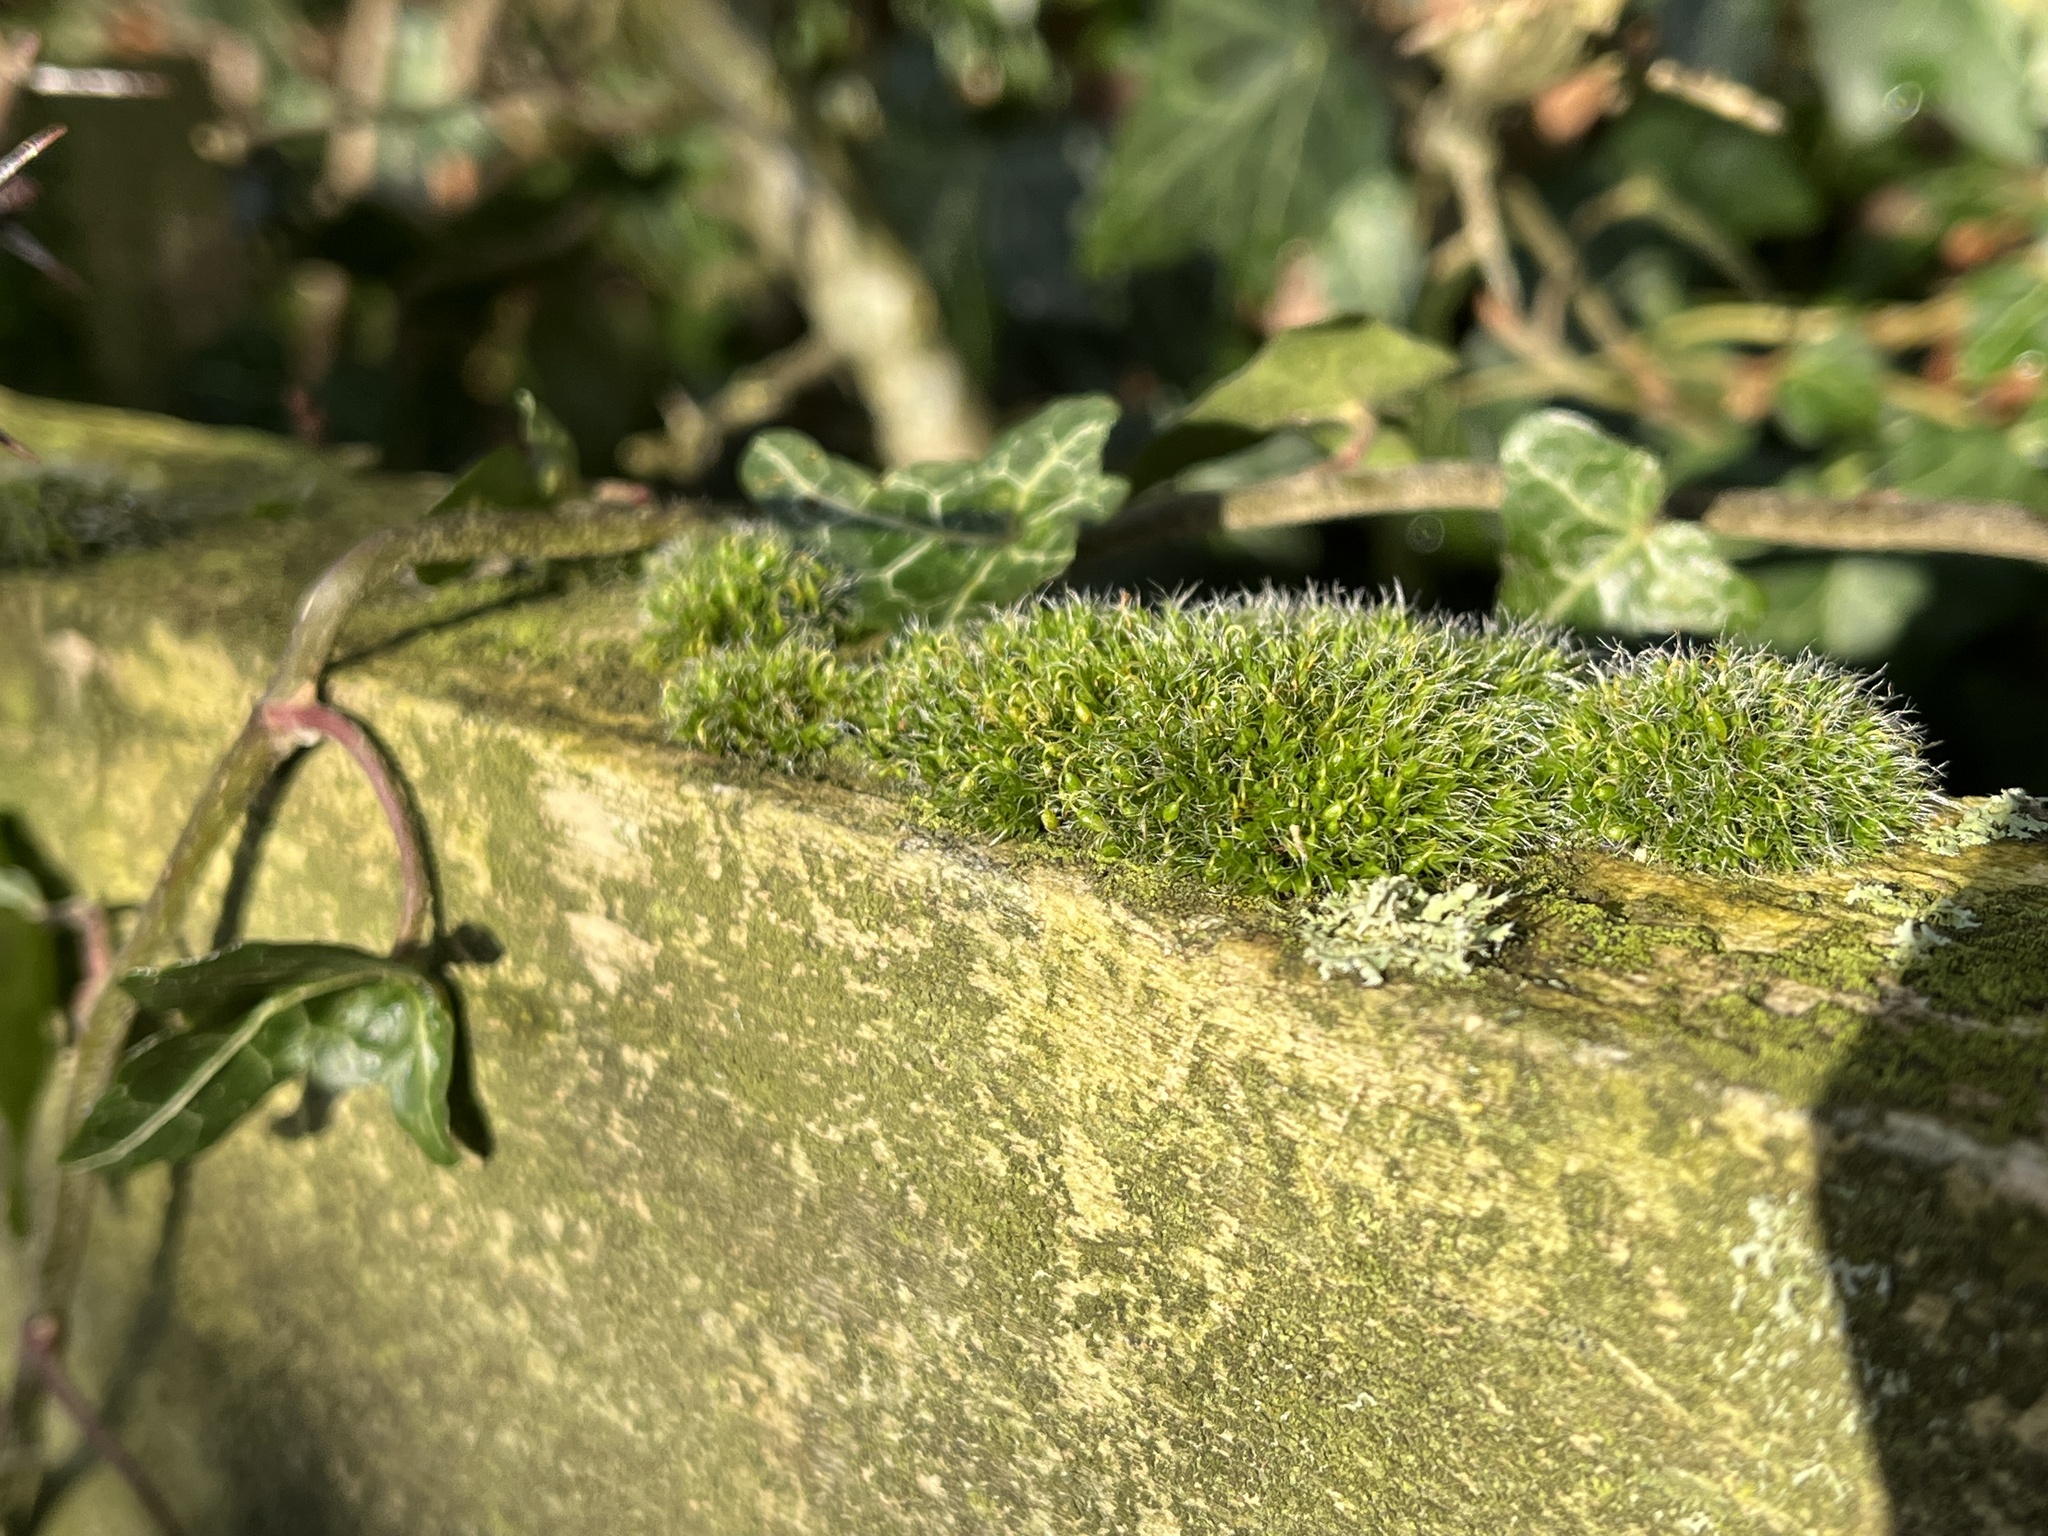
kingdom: Plantae
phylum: Bryophyta
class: Bryopsida
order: Grimmiales
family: Grimmiaceae
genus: Grimmia
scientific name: Grimmia pulvinata
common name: Grey-cushioned grimmia
